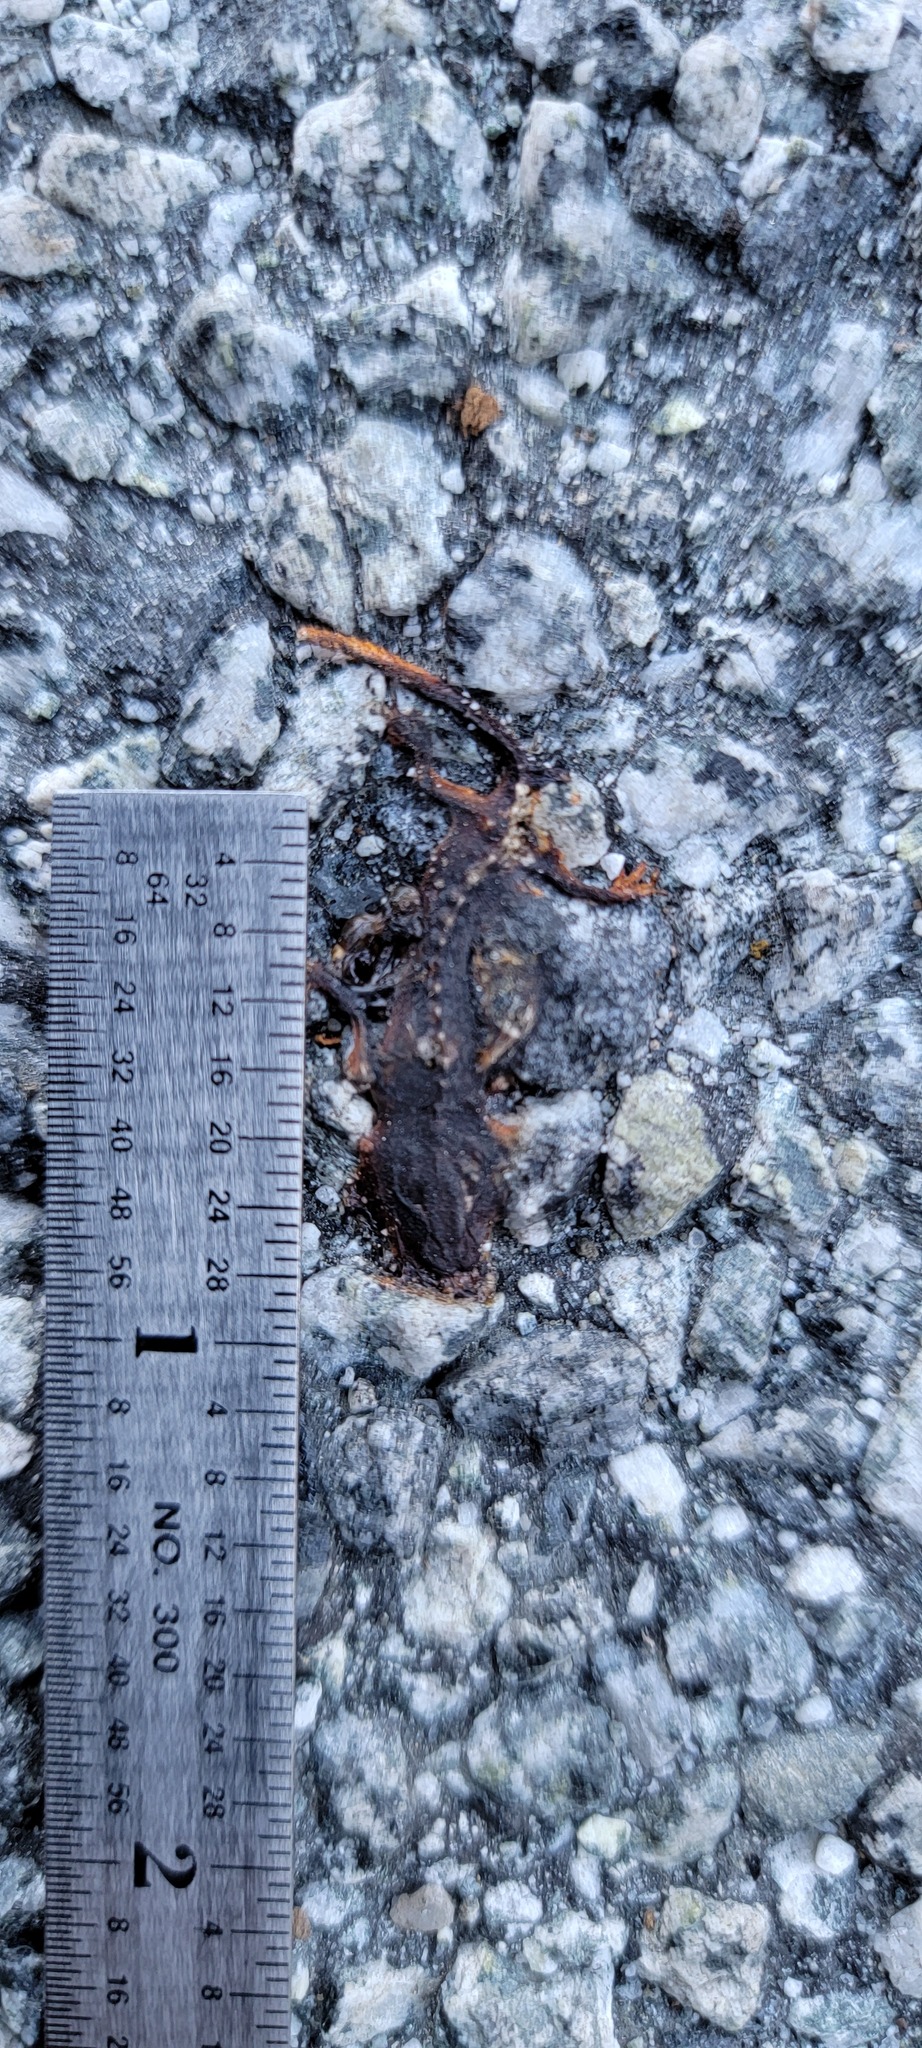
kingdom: Animalia
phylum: Chordata
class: Amphibia
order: Caudata
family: Salamandridae
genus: Taricha
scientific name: Taricha
